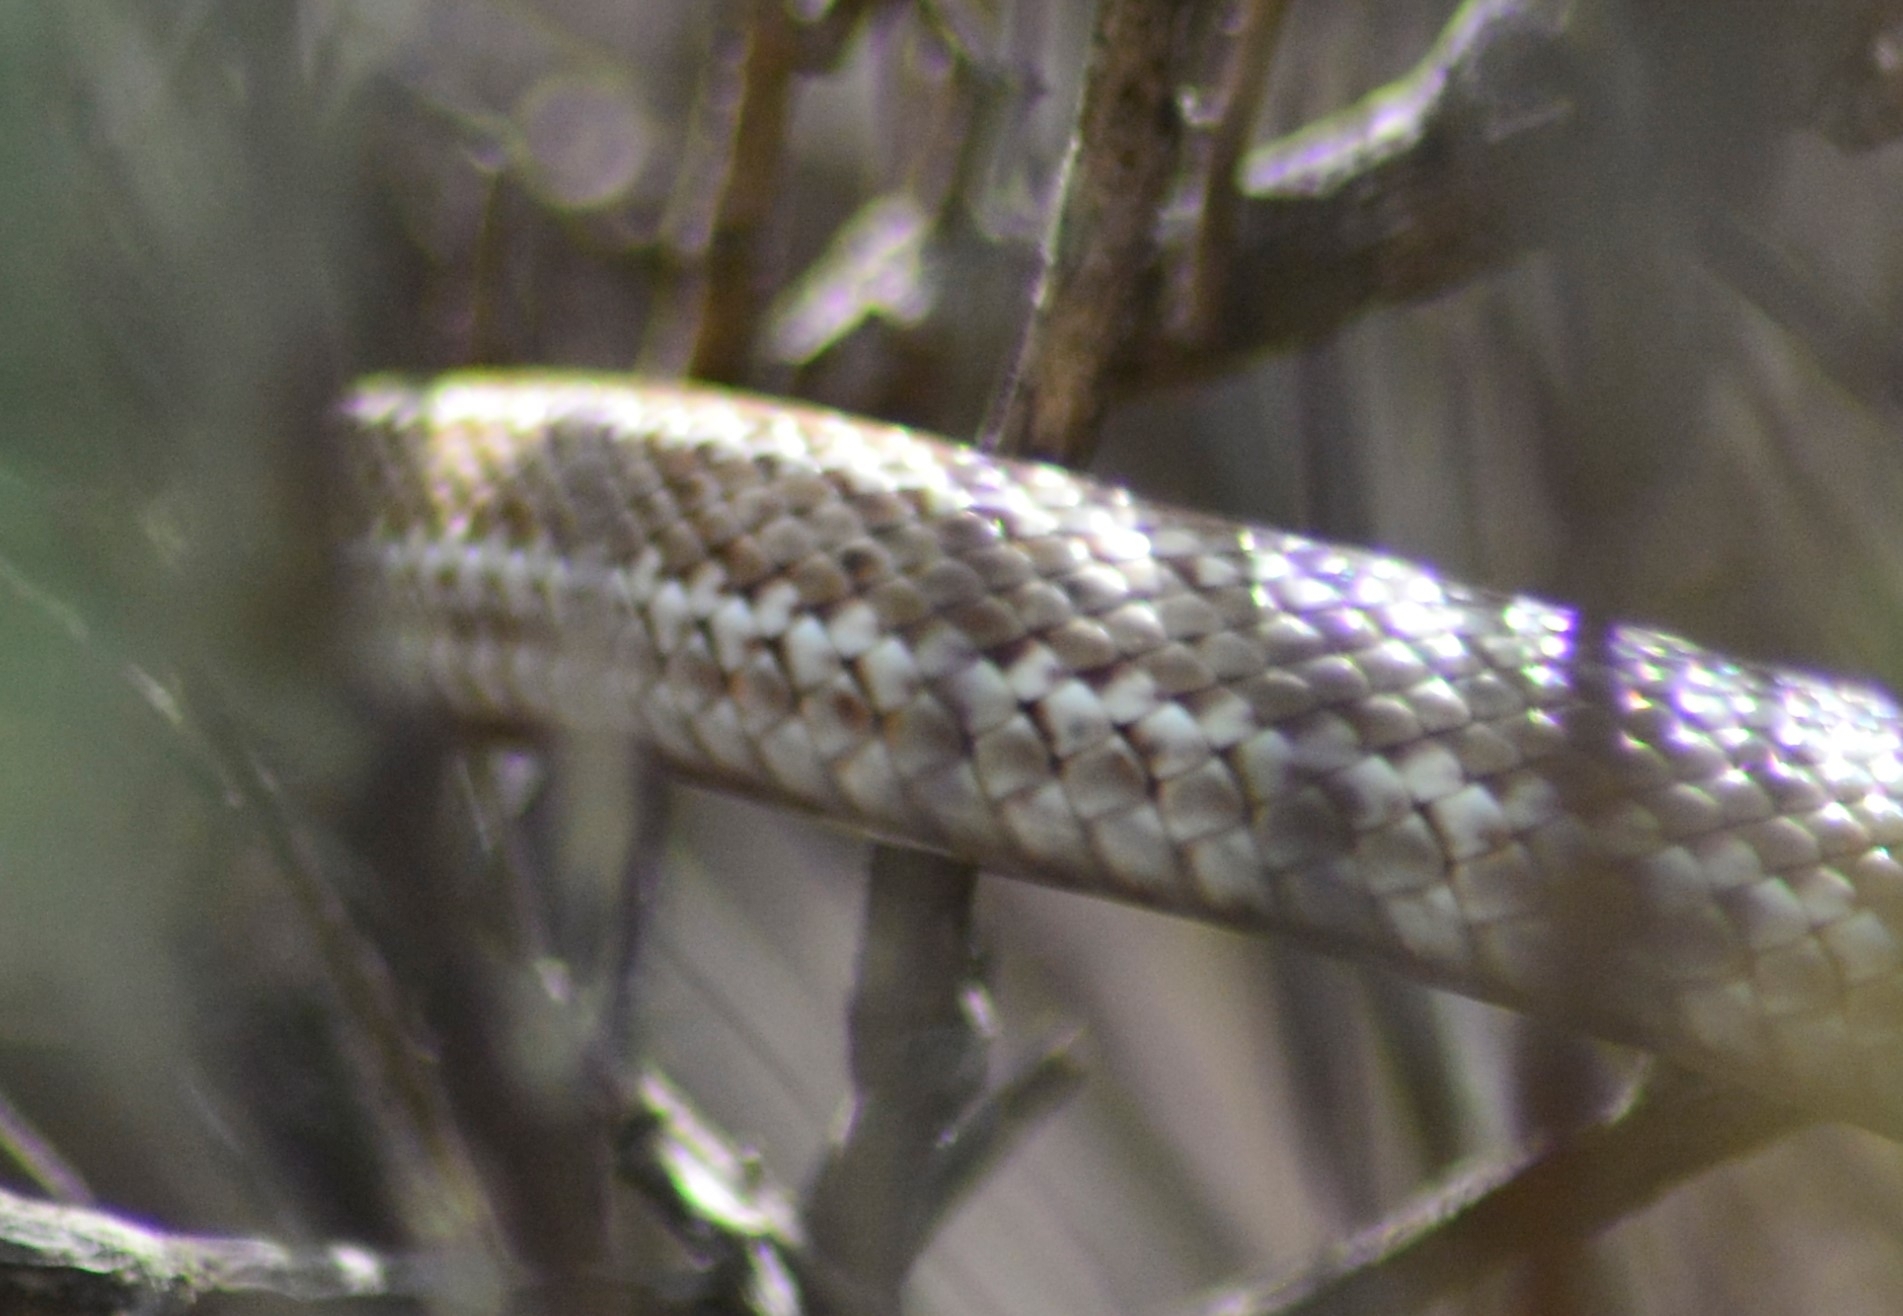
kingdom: Animalia
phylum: Chordata
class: Squamata
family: Colubridae
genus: Philodryas
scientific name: Philodryas trilineata
